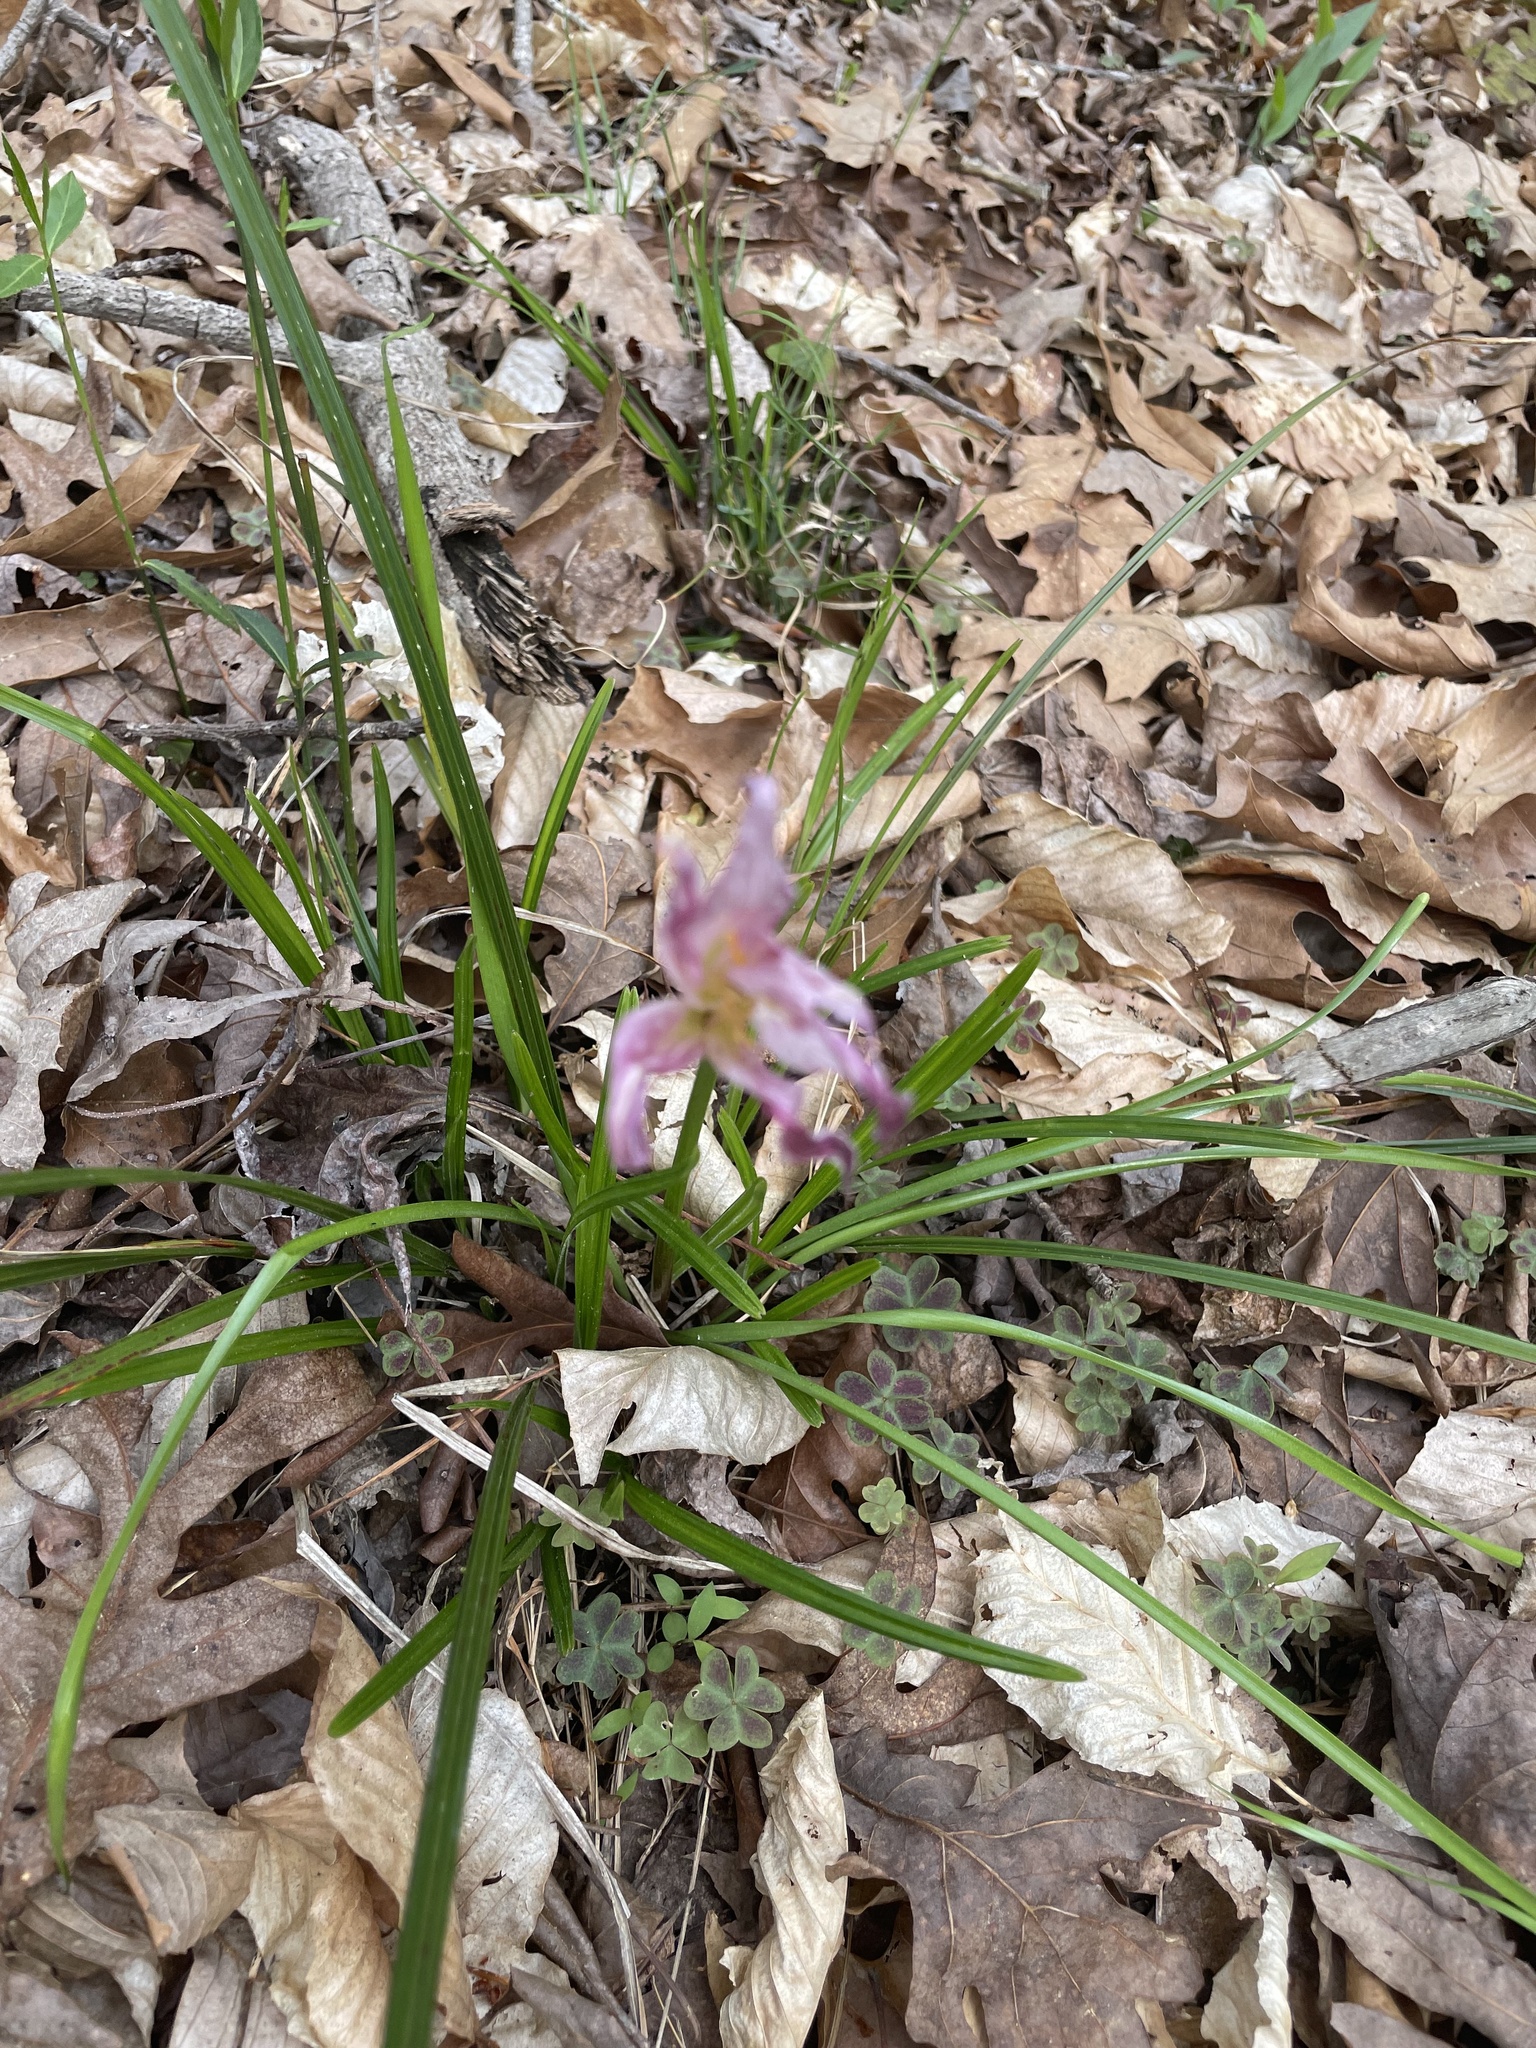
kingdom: Plantae
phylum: Tracheophyta
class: Liliopsida
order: Asparagales
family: Amaryllidaceae
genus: Zephyranthes
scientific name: Zephyranthes atamasco
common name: Atamasco lily
